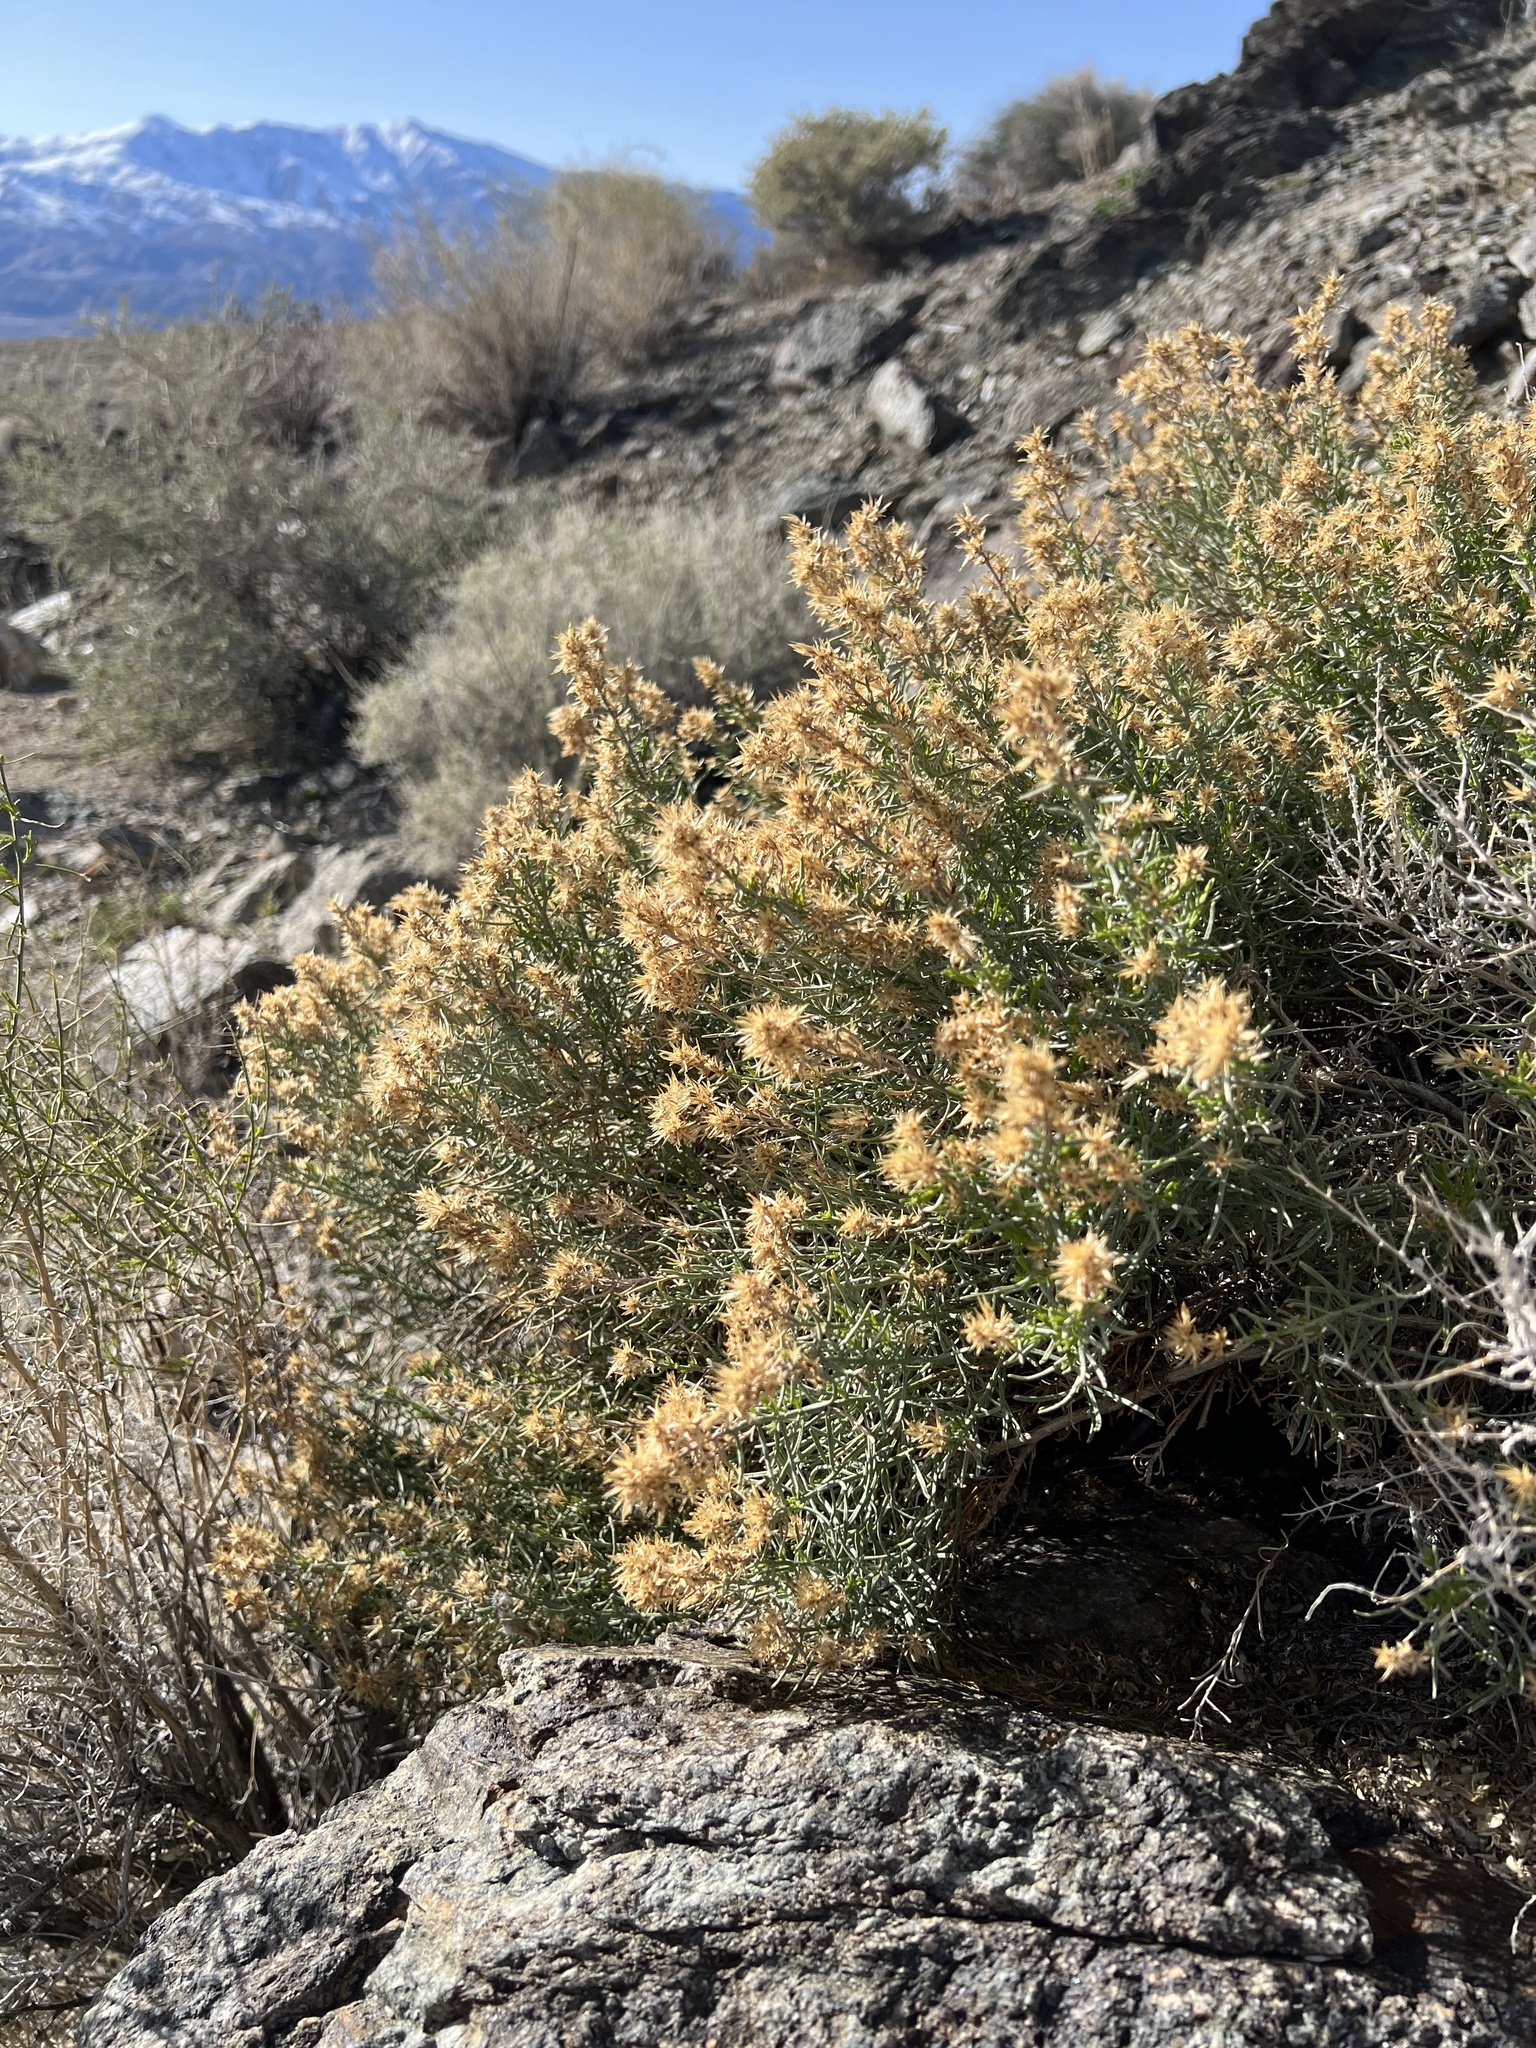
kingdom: Plantae
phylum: Tracheophyta
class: Magnoliopsida
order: Asterales
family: Asteraceae
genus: Ericameria
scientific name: Ericameria teretifolia
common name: Round-leaf rabbitbrush
